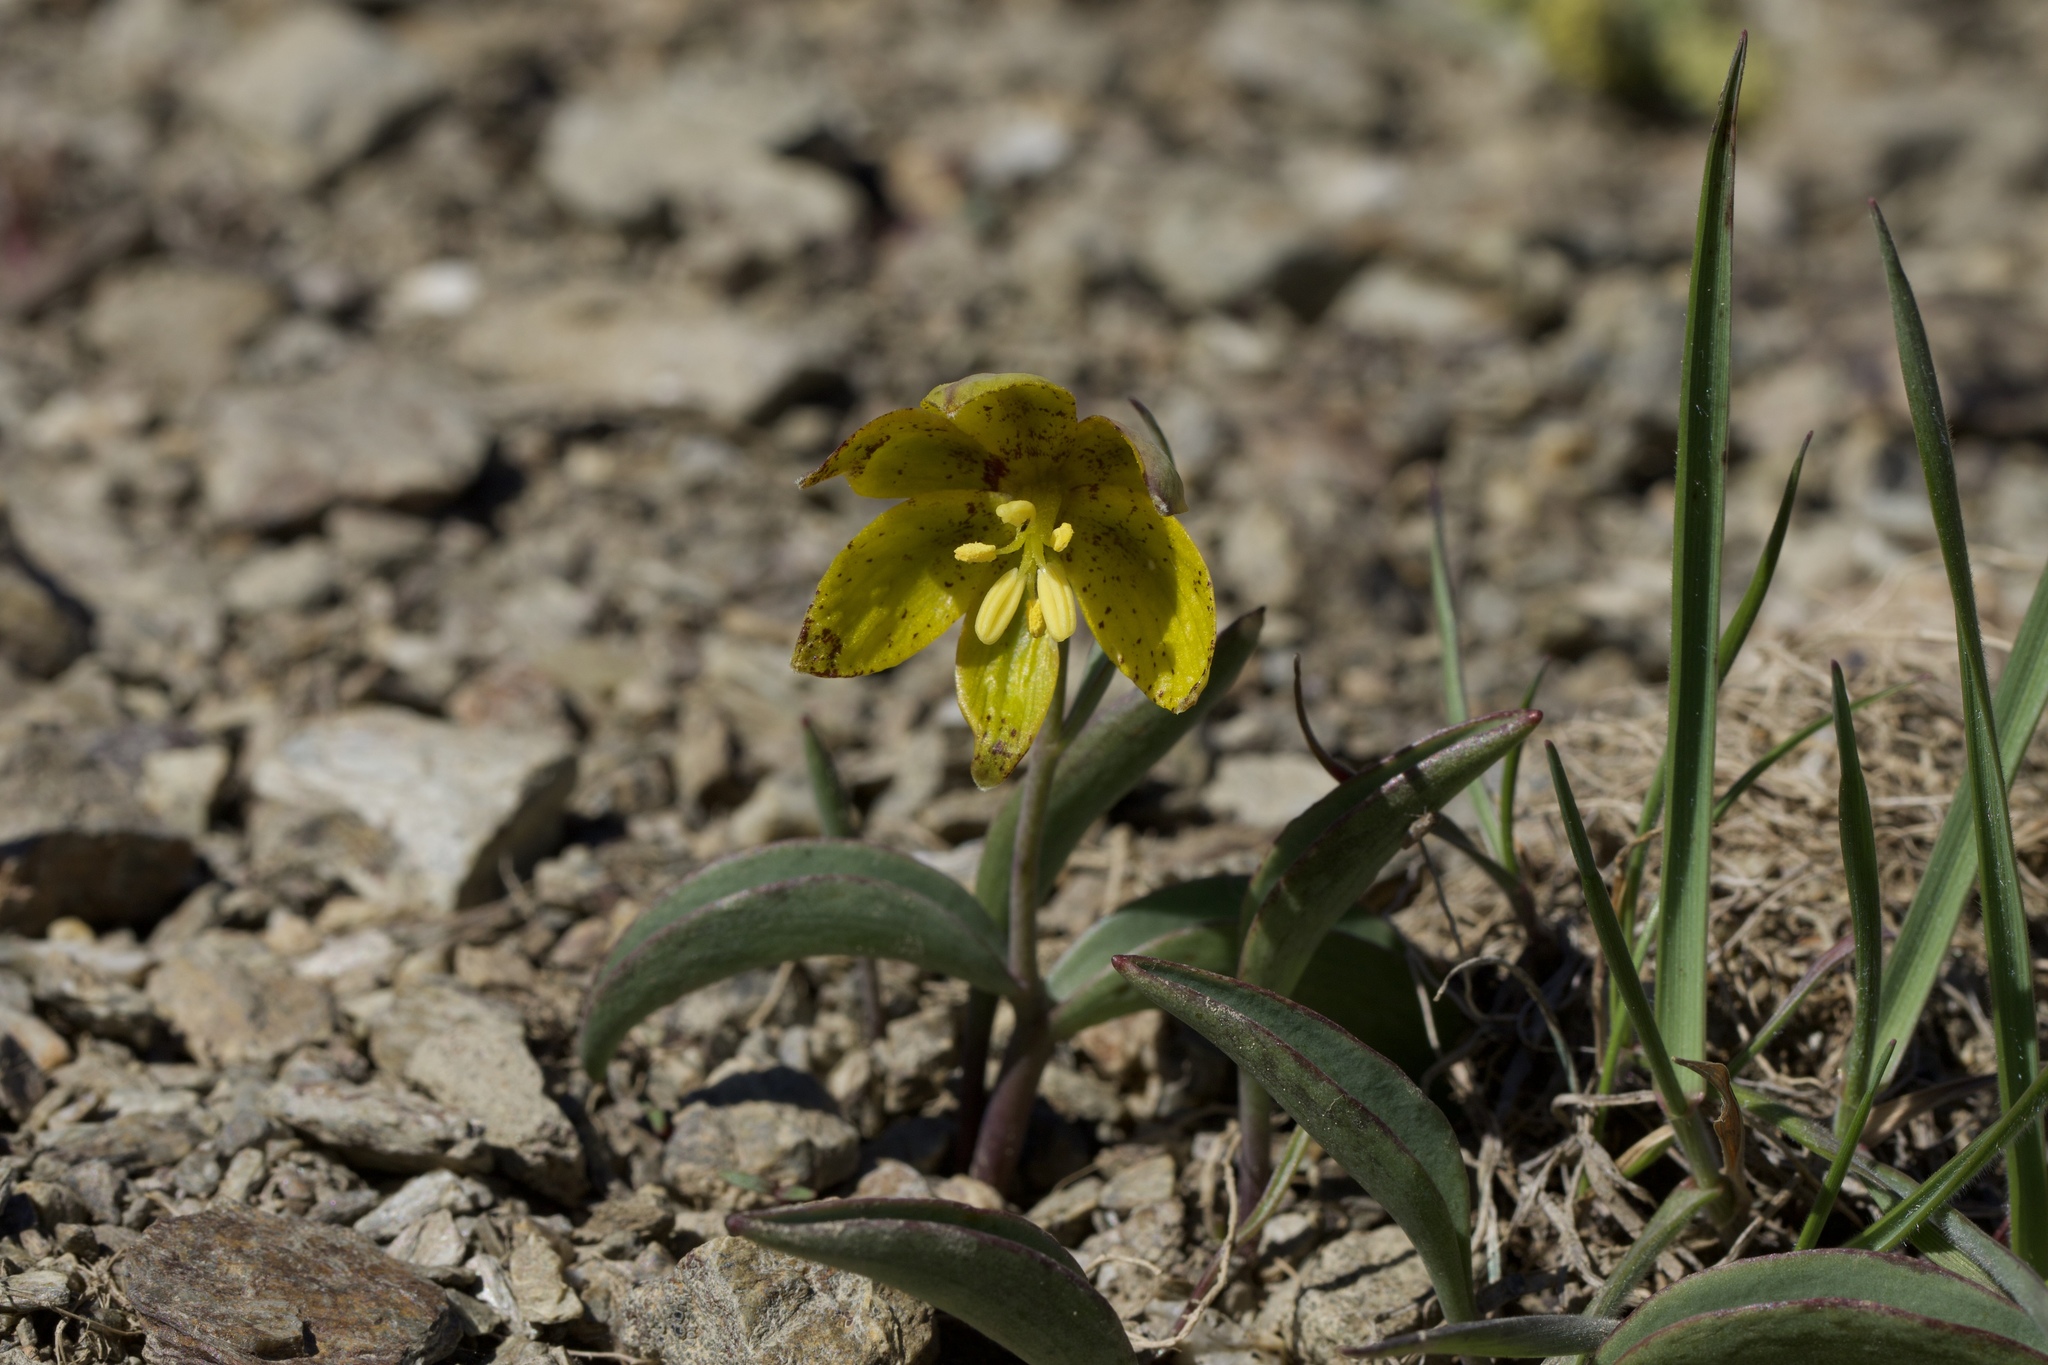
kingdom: Plantae
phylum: Tracheophyta
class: Liliopsida
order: Liliales
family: Liliaceae
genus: Fritillaria
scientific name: Fritillaria glauca
